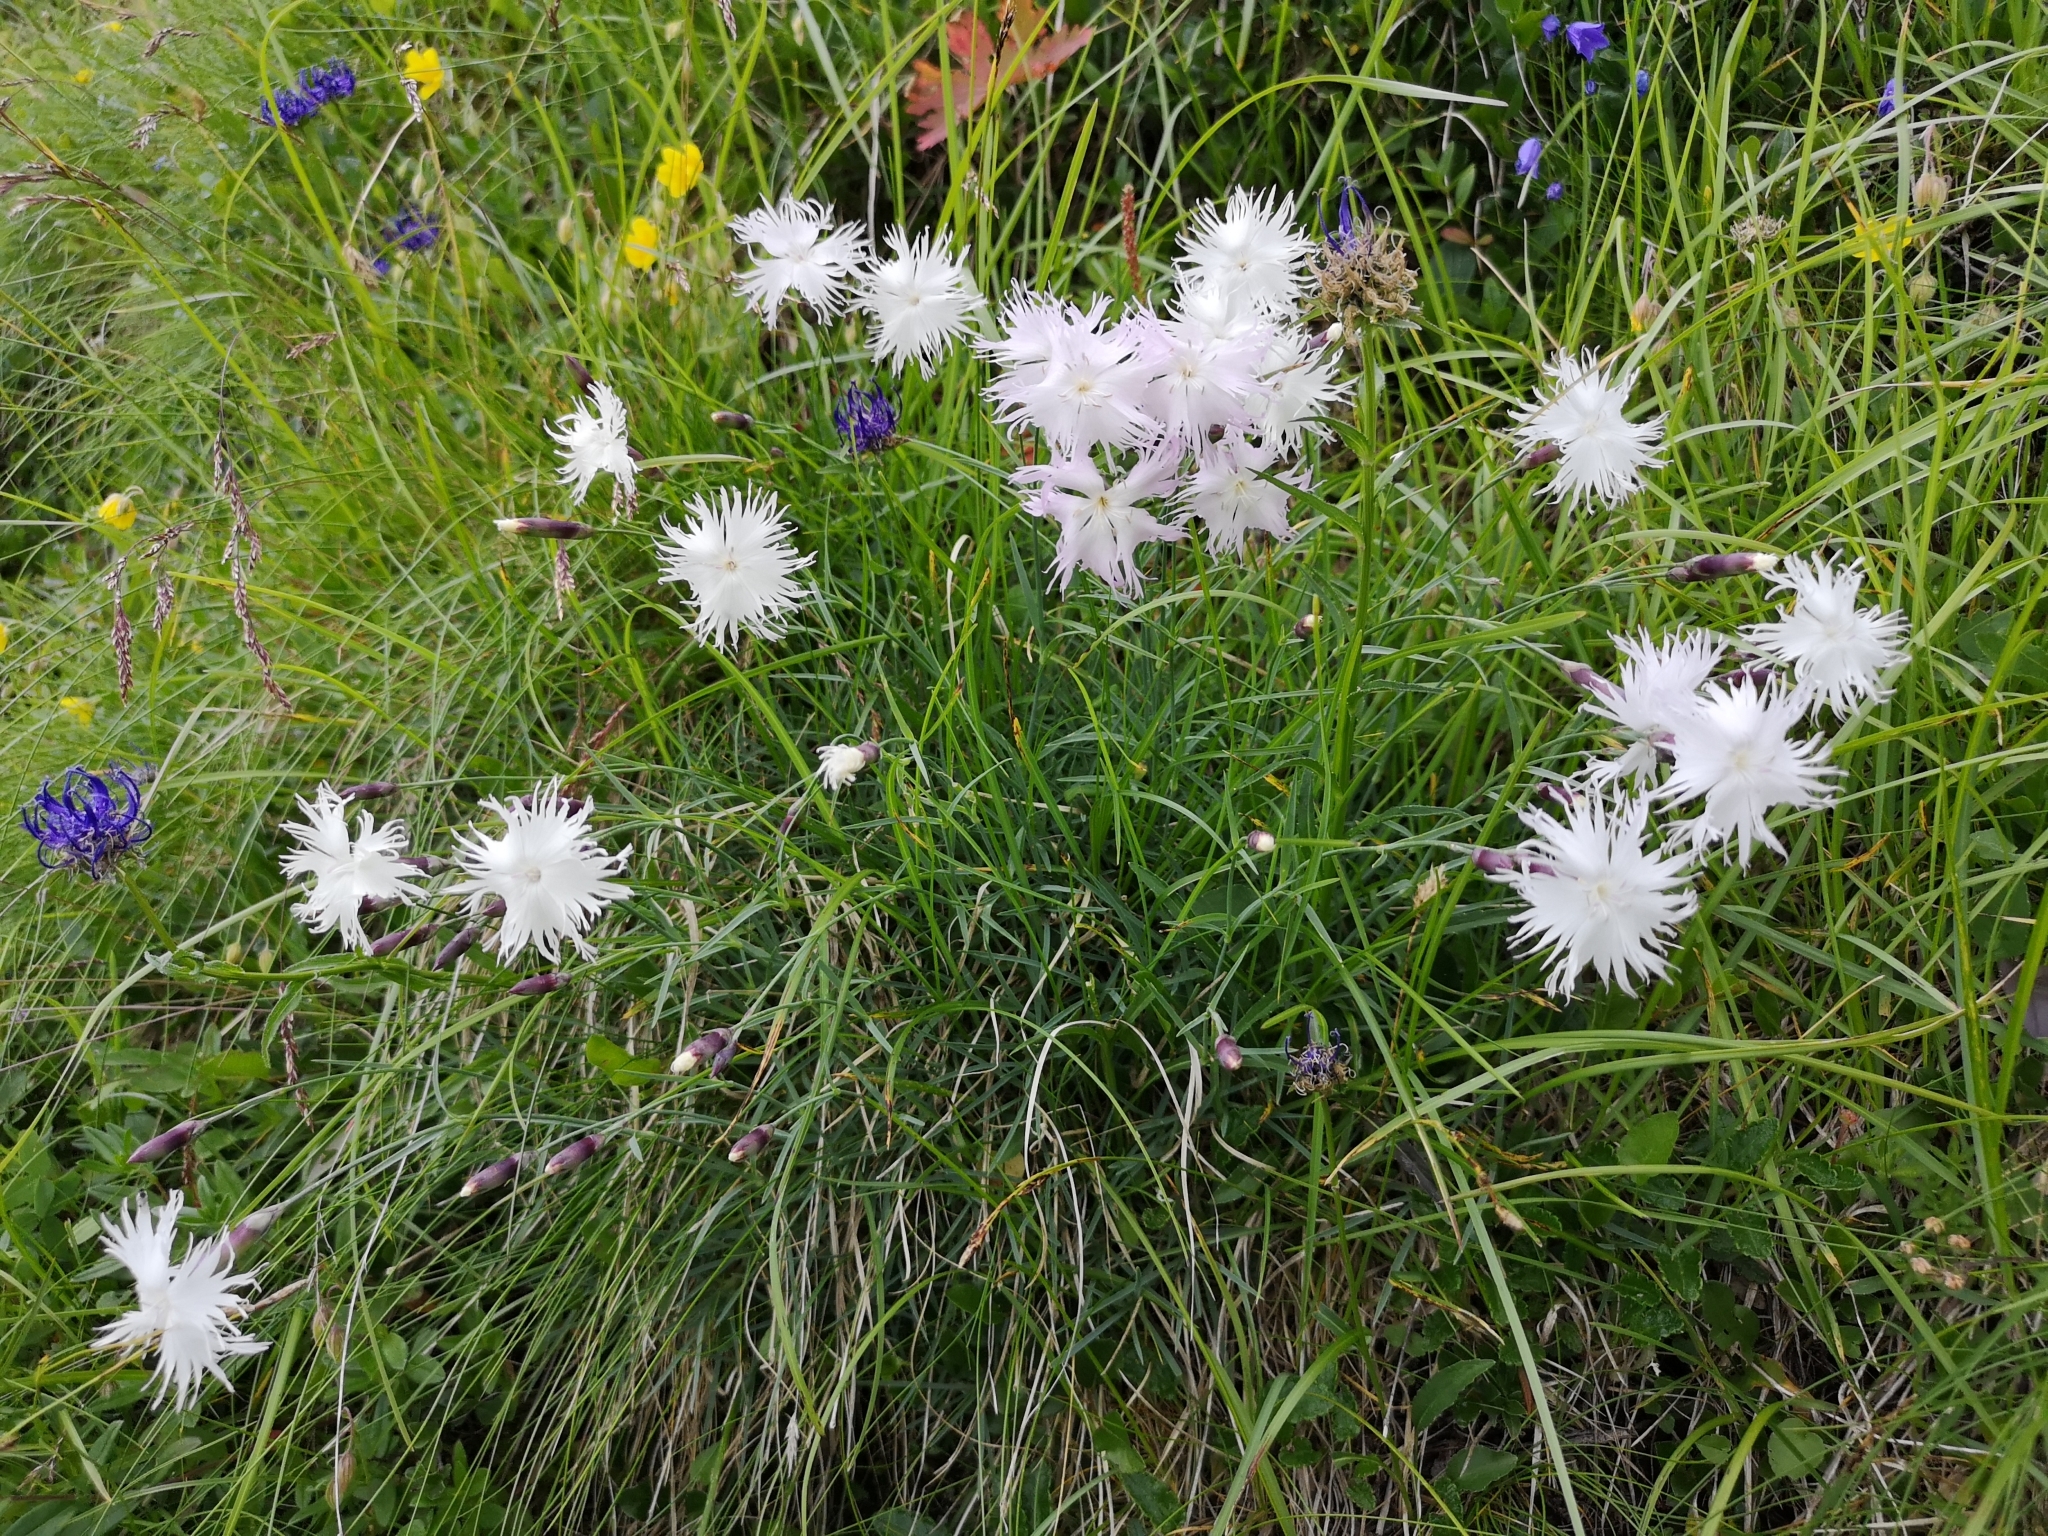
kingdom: Plantae
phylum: Tracheophyta
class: Magnoliopsida
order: Caryophyllales
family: Caryophyllaceae
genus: Dianthus
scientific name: Dianthus
